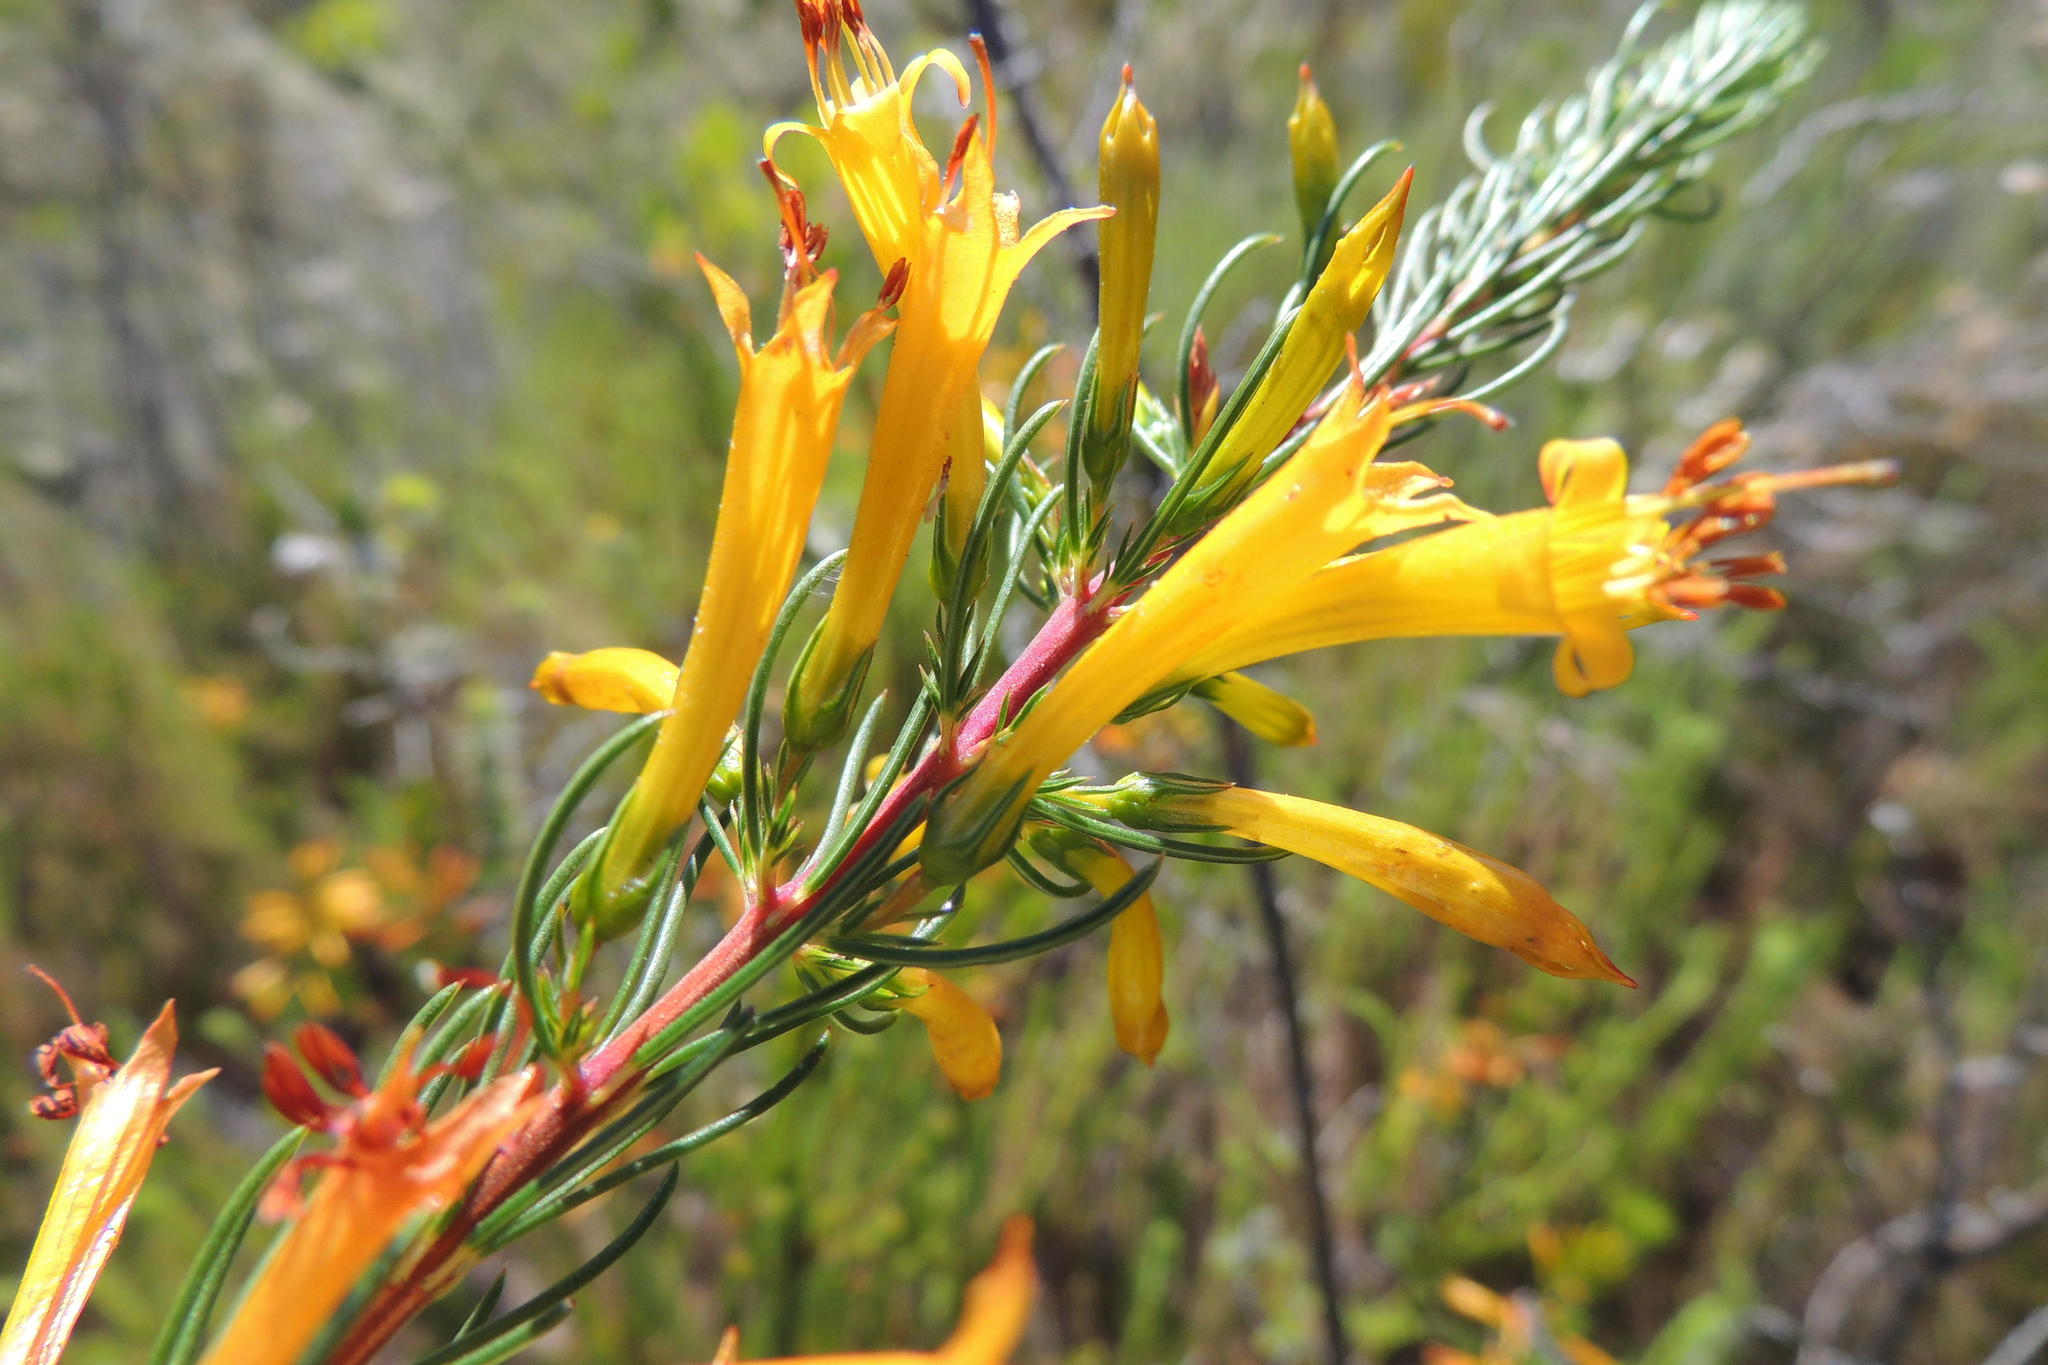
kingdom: Plantae
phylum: Tracheophyta
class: Magnoliopsida
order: Ericales
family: Ericaceae
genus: Erica
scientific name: Erica grandiflora
